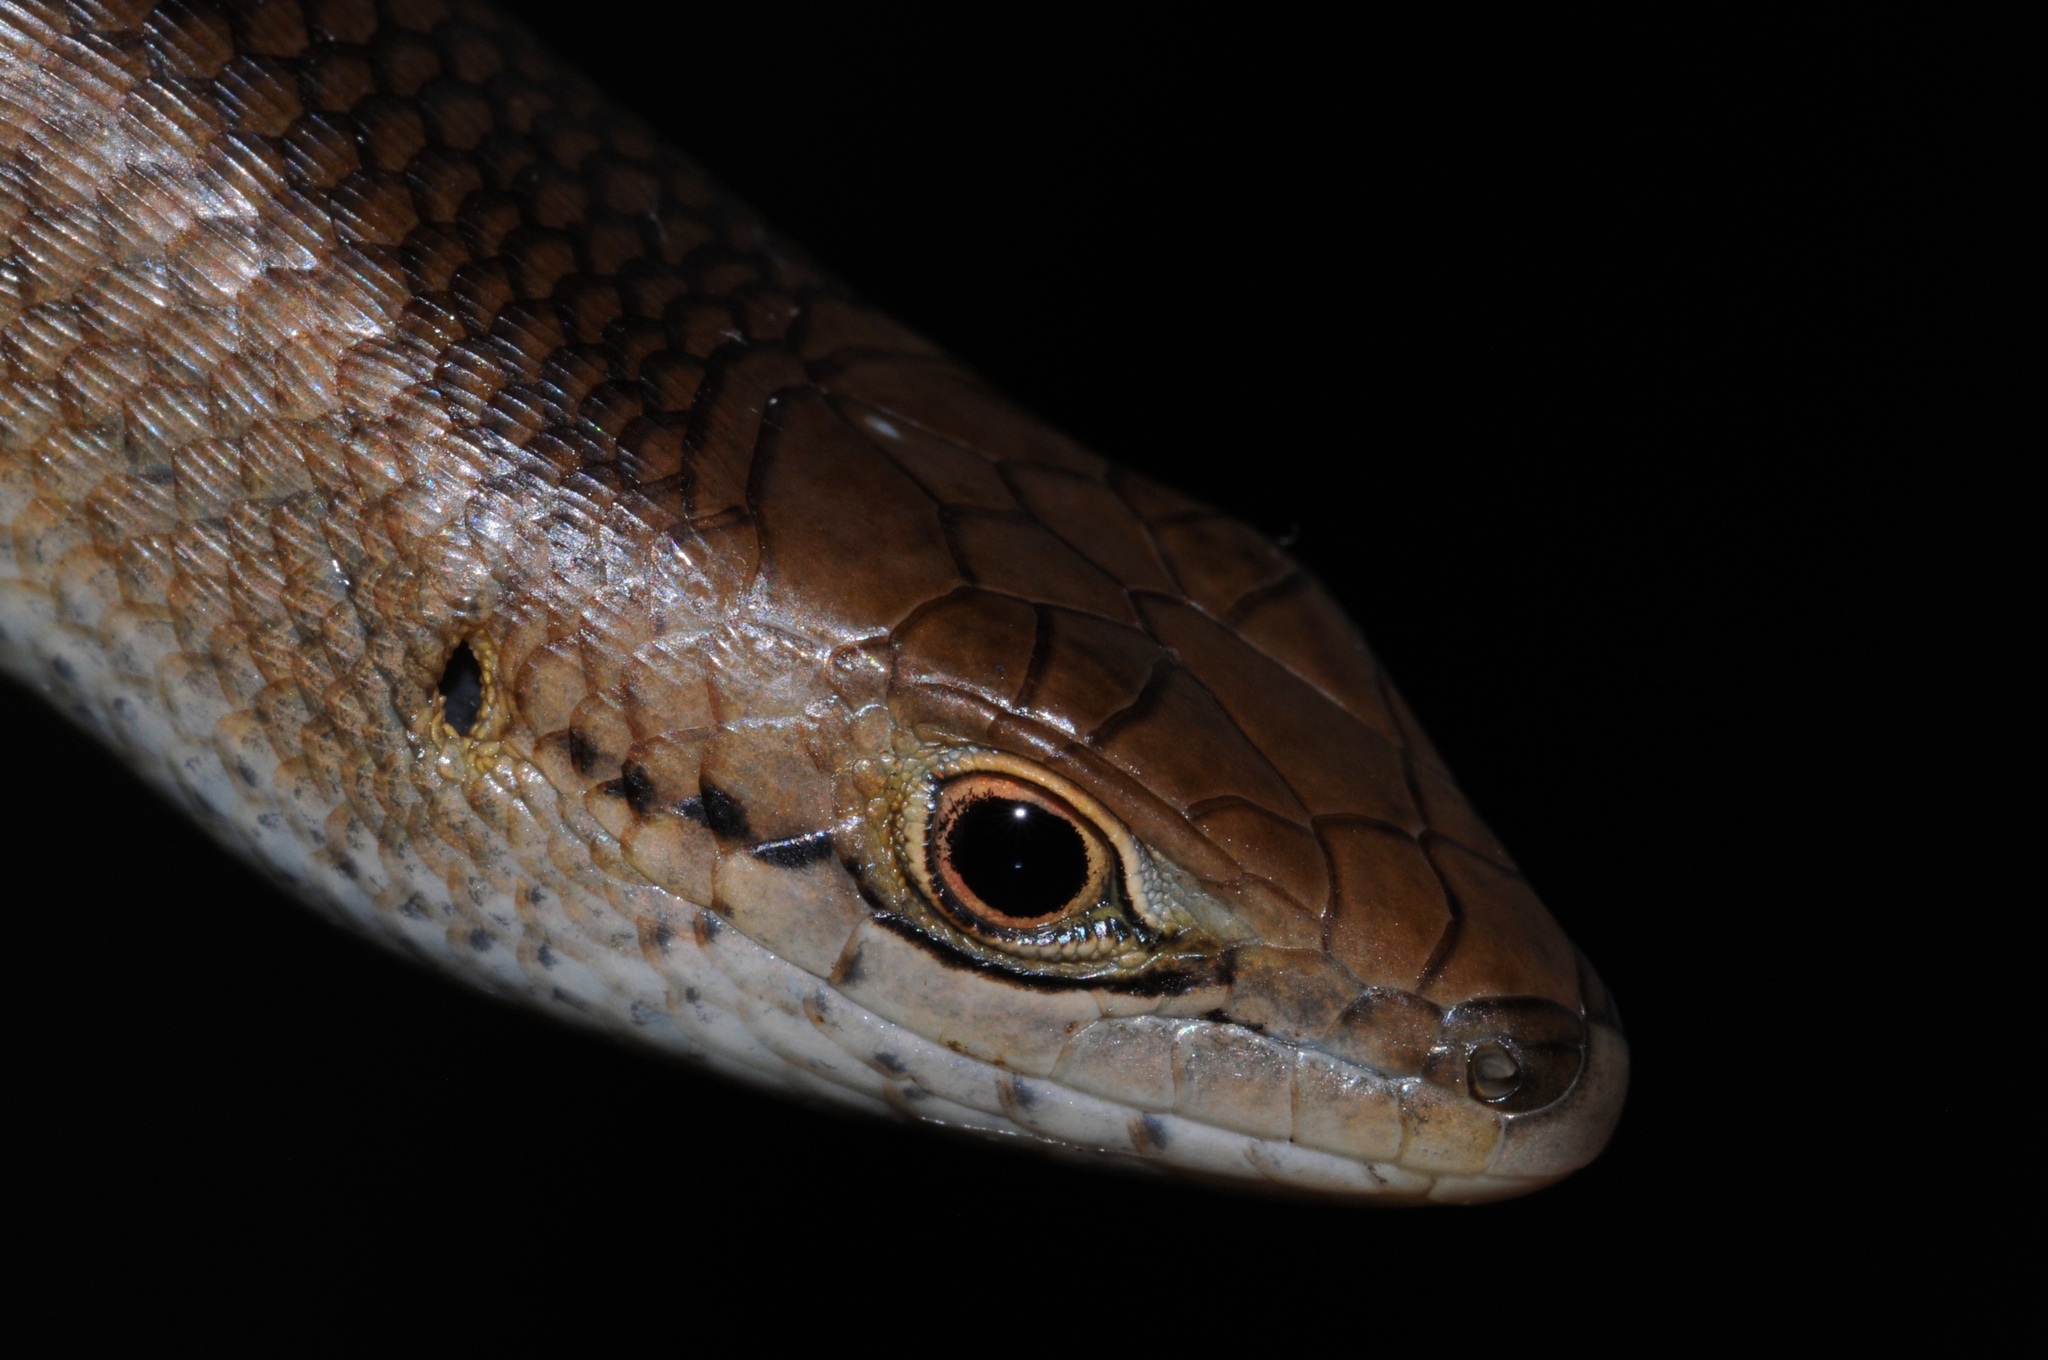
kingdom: Animalia
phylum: Chordata
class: Squamata
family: Scincidae
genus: Trachylepis
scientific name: Trachylepis boulengeri
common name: Boulenger's mabuya
